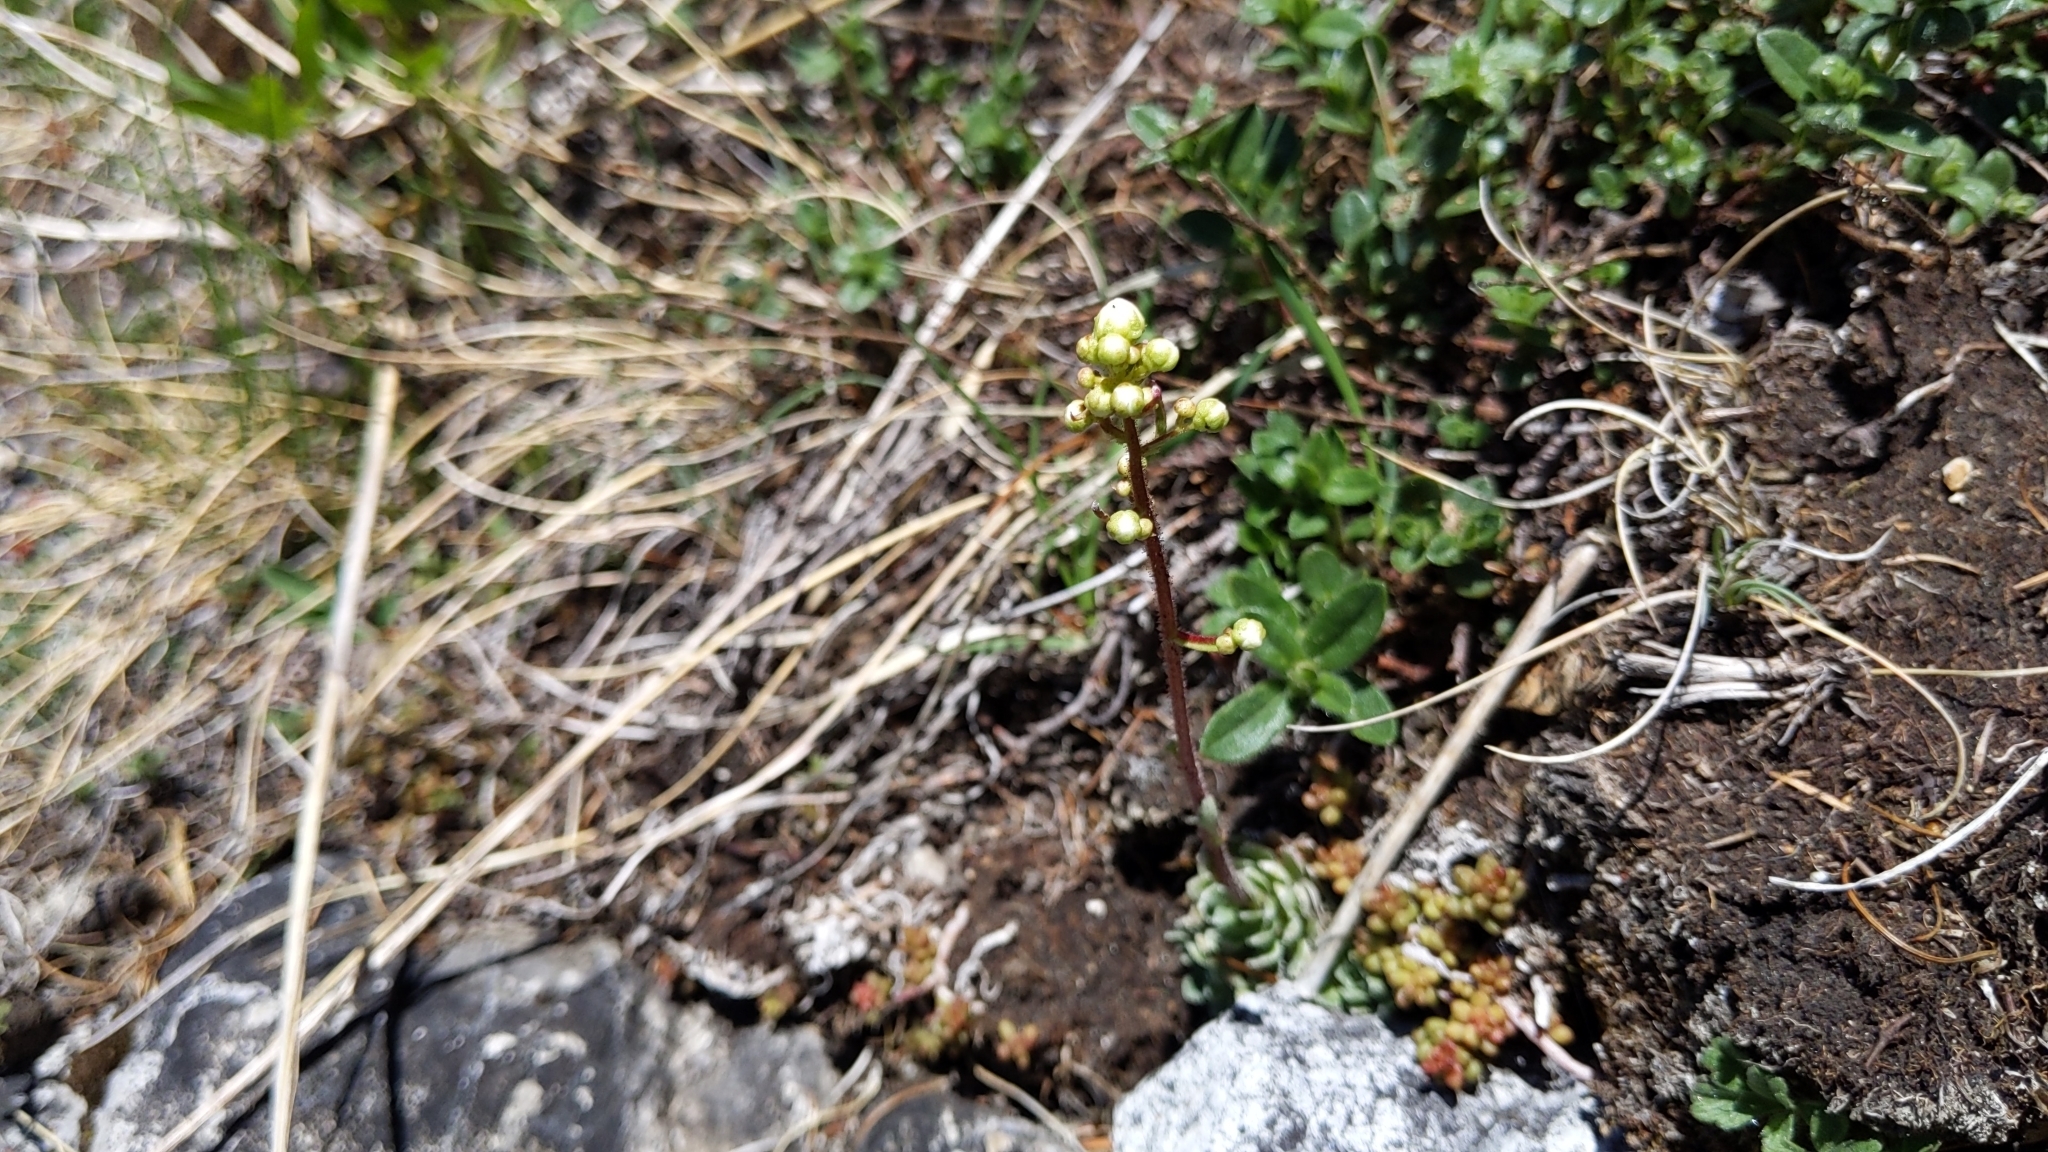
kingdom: Plantae
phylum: Tracheophyta
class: Magnoliopsida
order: Saxifragales
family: Saxifragaceae
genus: Saxifraga
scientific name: Saxifraga paniculata
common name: Livelong saxifrage
